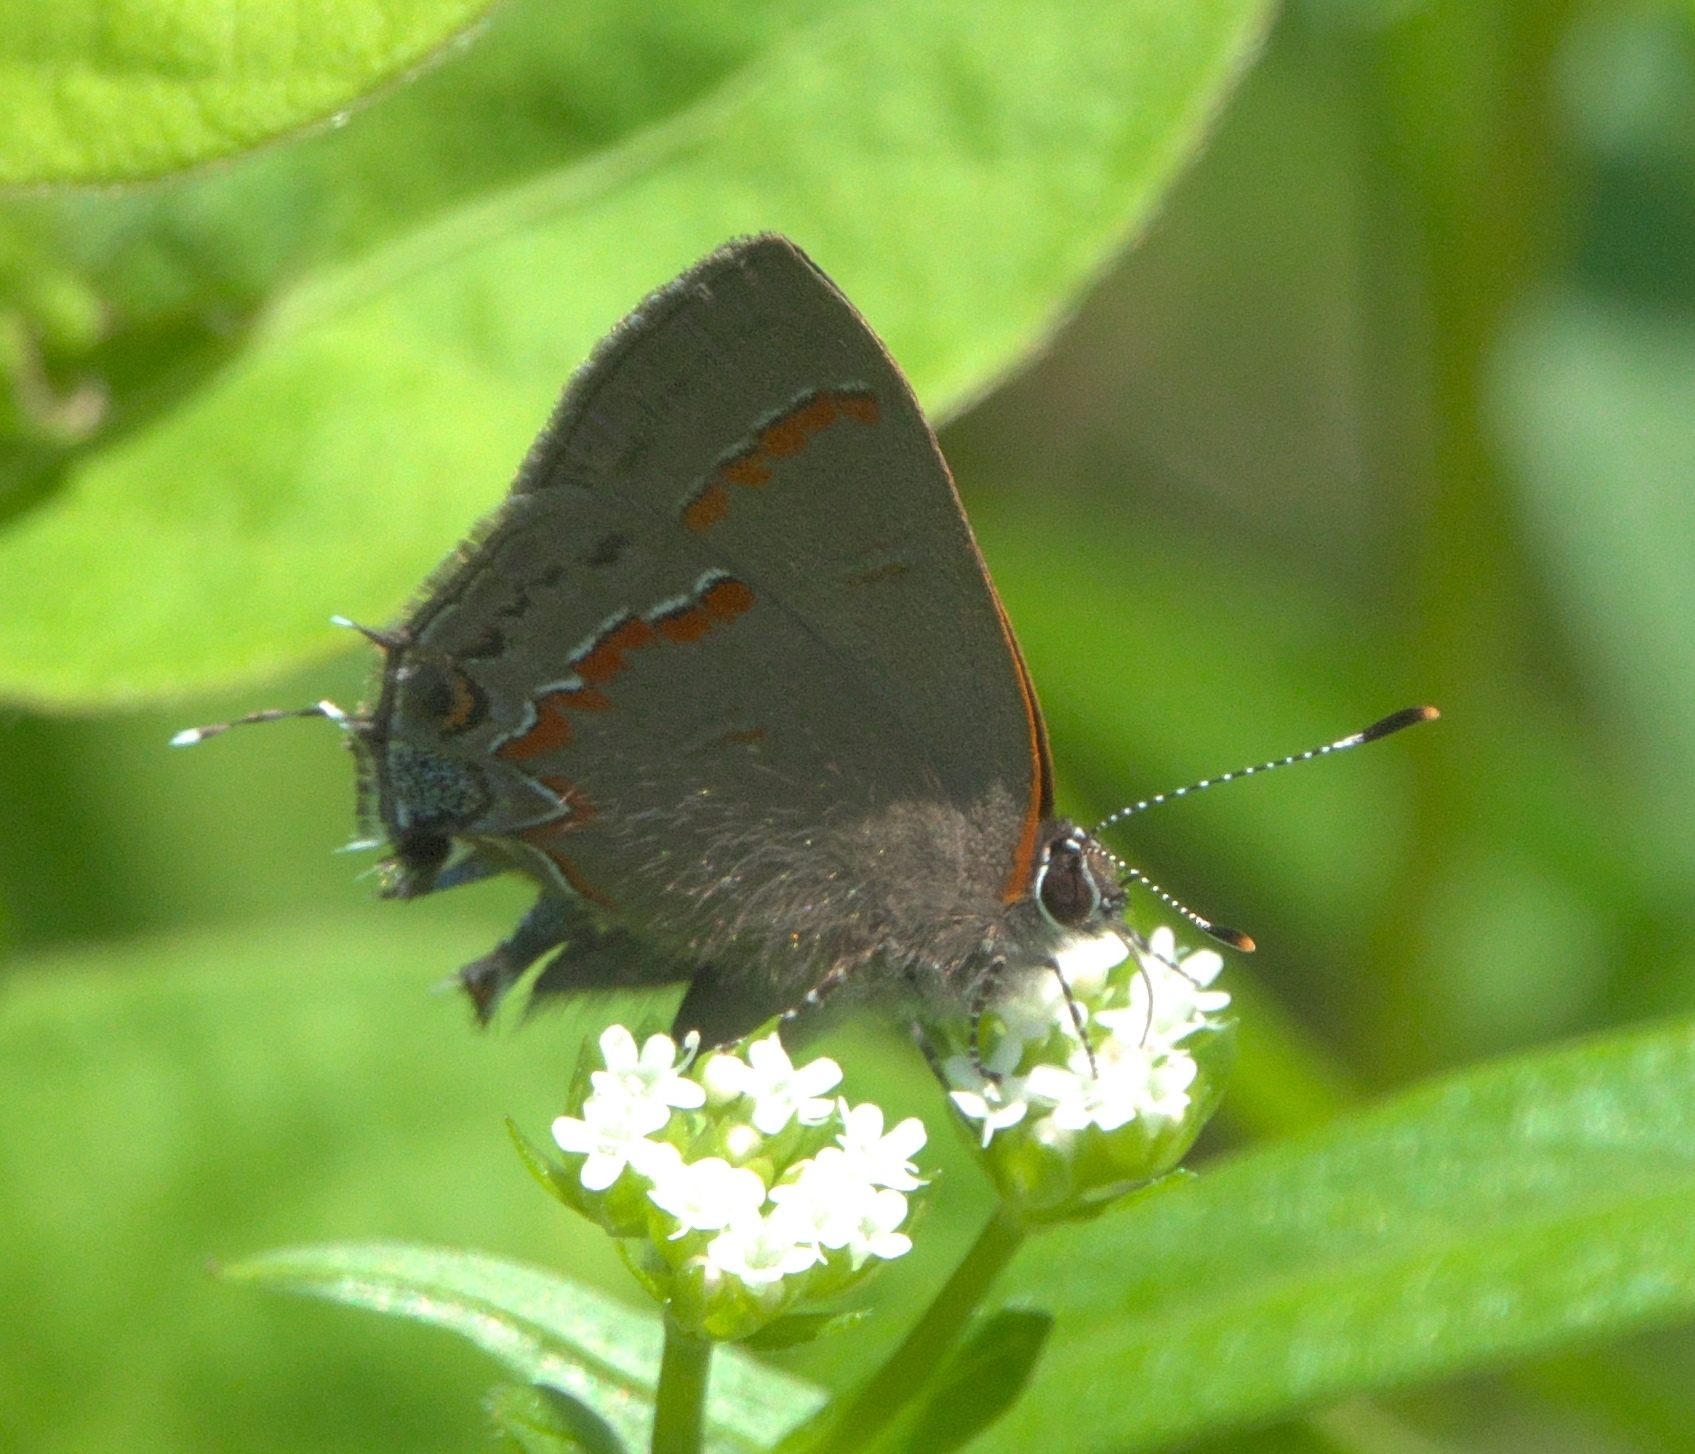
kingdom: Animalia
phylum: Arthropoda
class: Insecta
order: Lepidoptera
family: Lycaenidae
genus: Calycopis
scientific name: Calycopis cecrops
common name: Red-banded hairstreak
